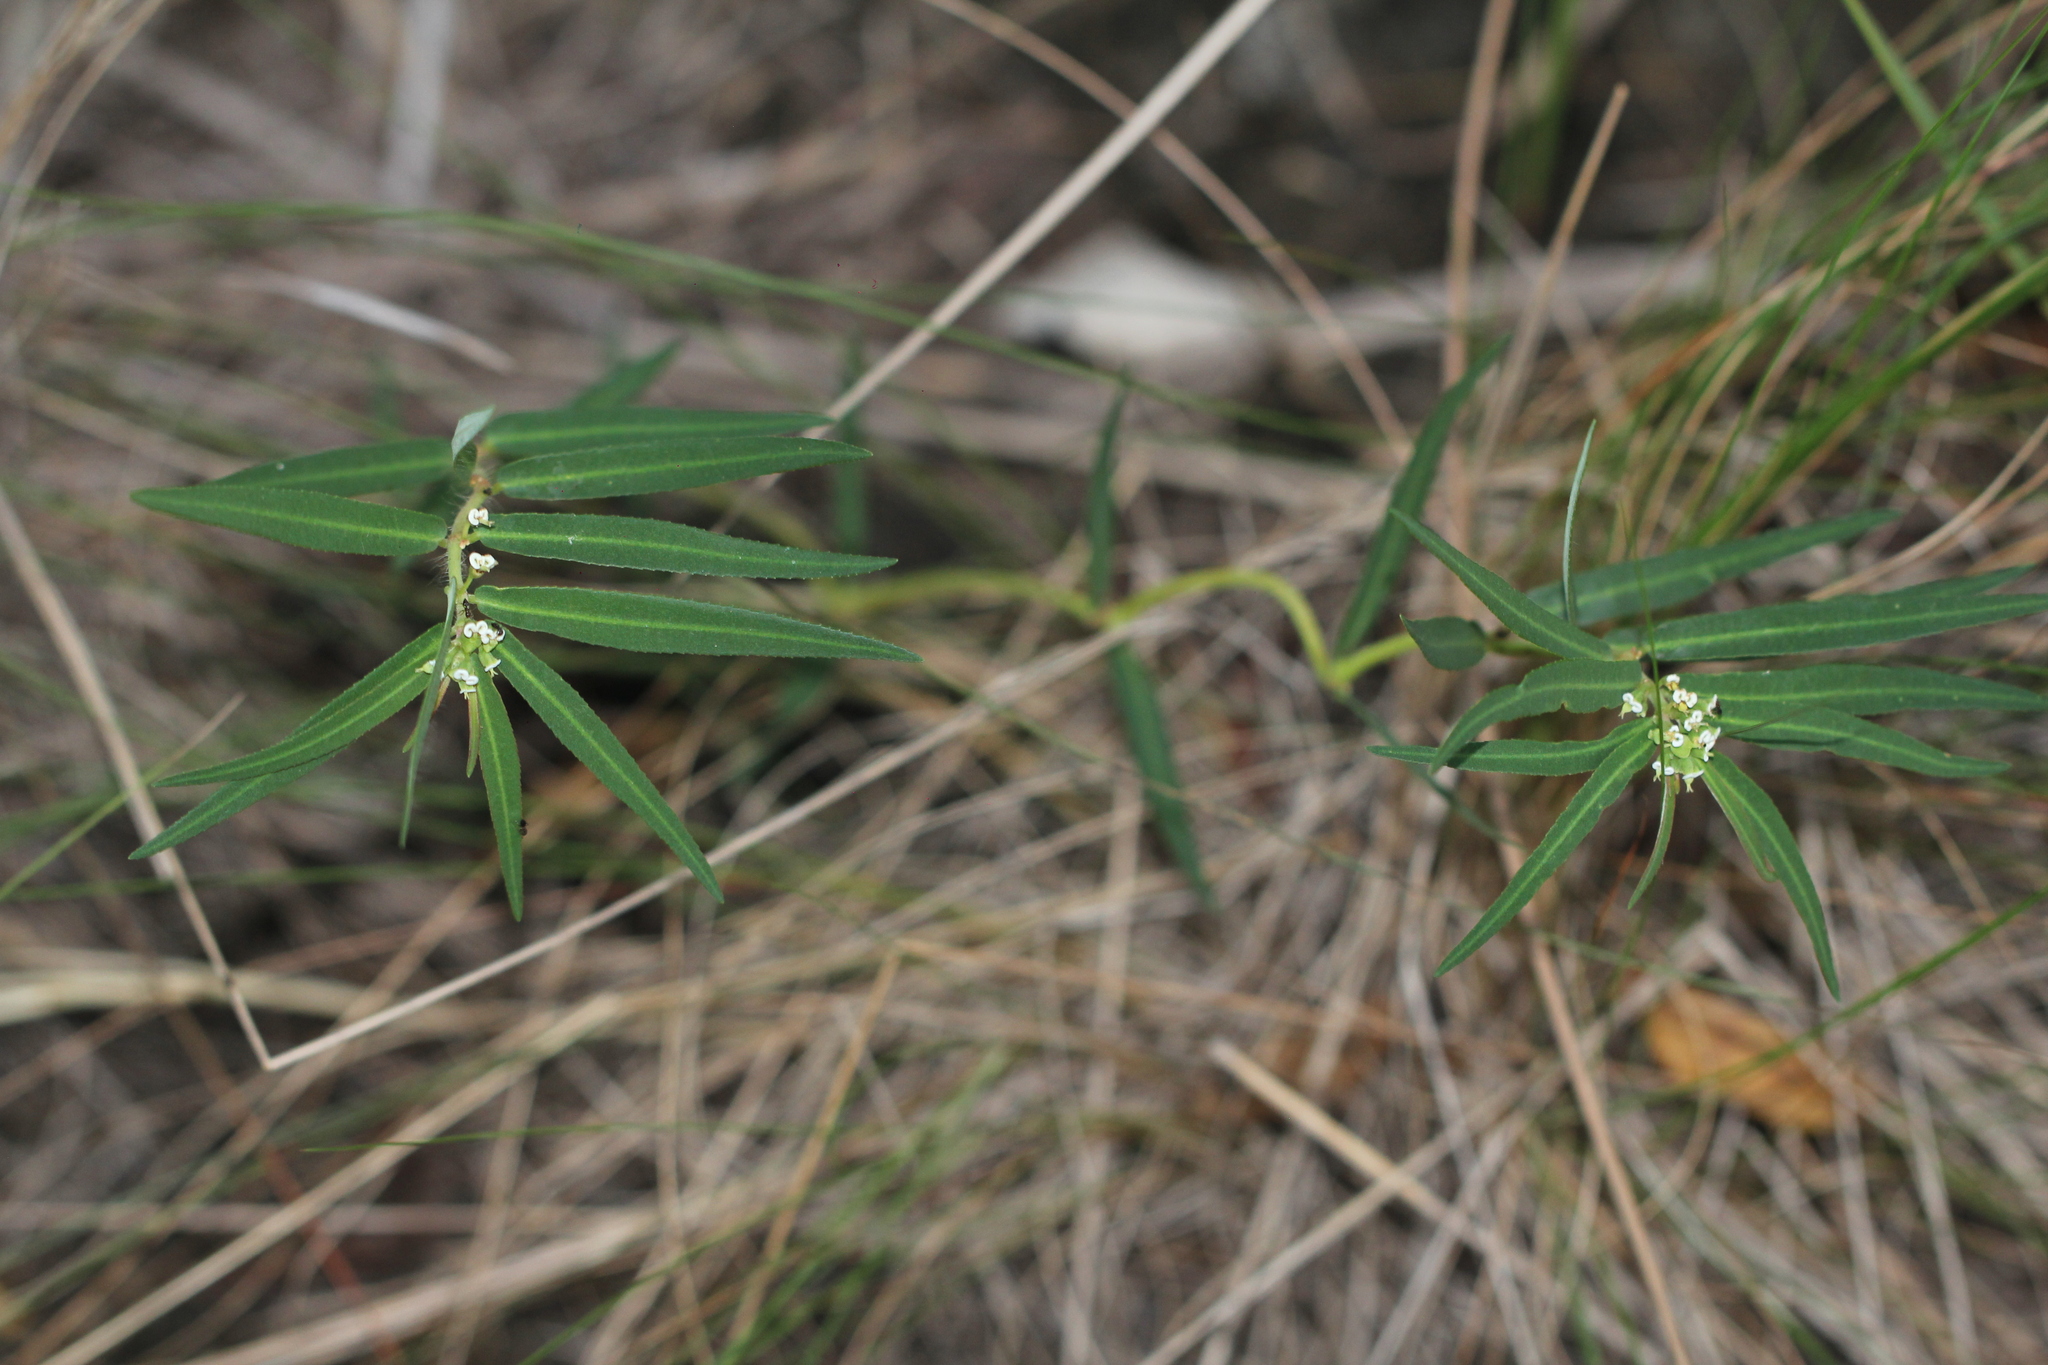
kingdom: Plantae
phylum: Tracheophyta
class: Magnoliopsida
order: Malpighiales
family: Euphorbiaceae
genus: Euphorbia
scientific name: Euphorbia stenophylla
